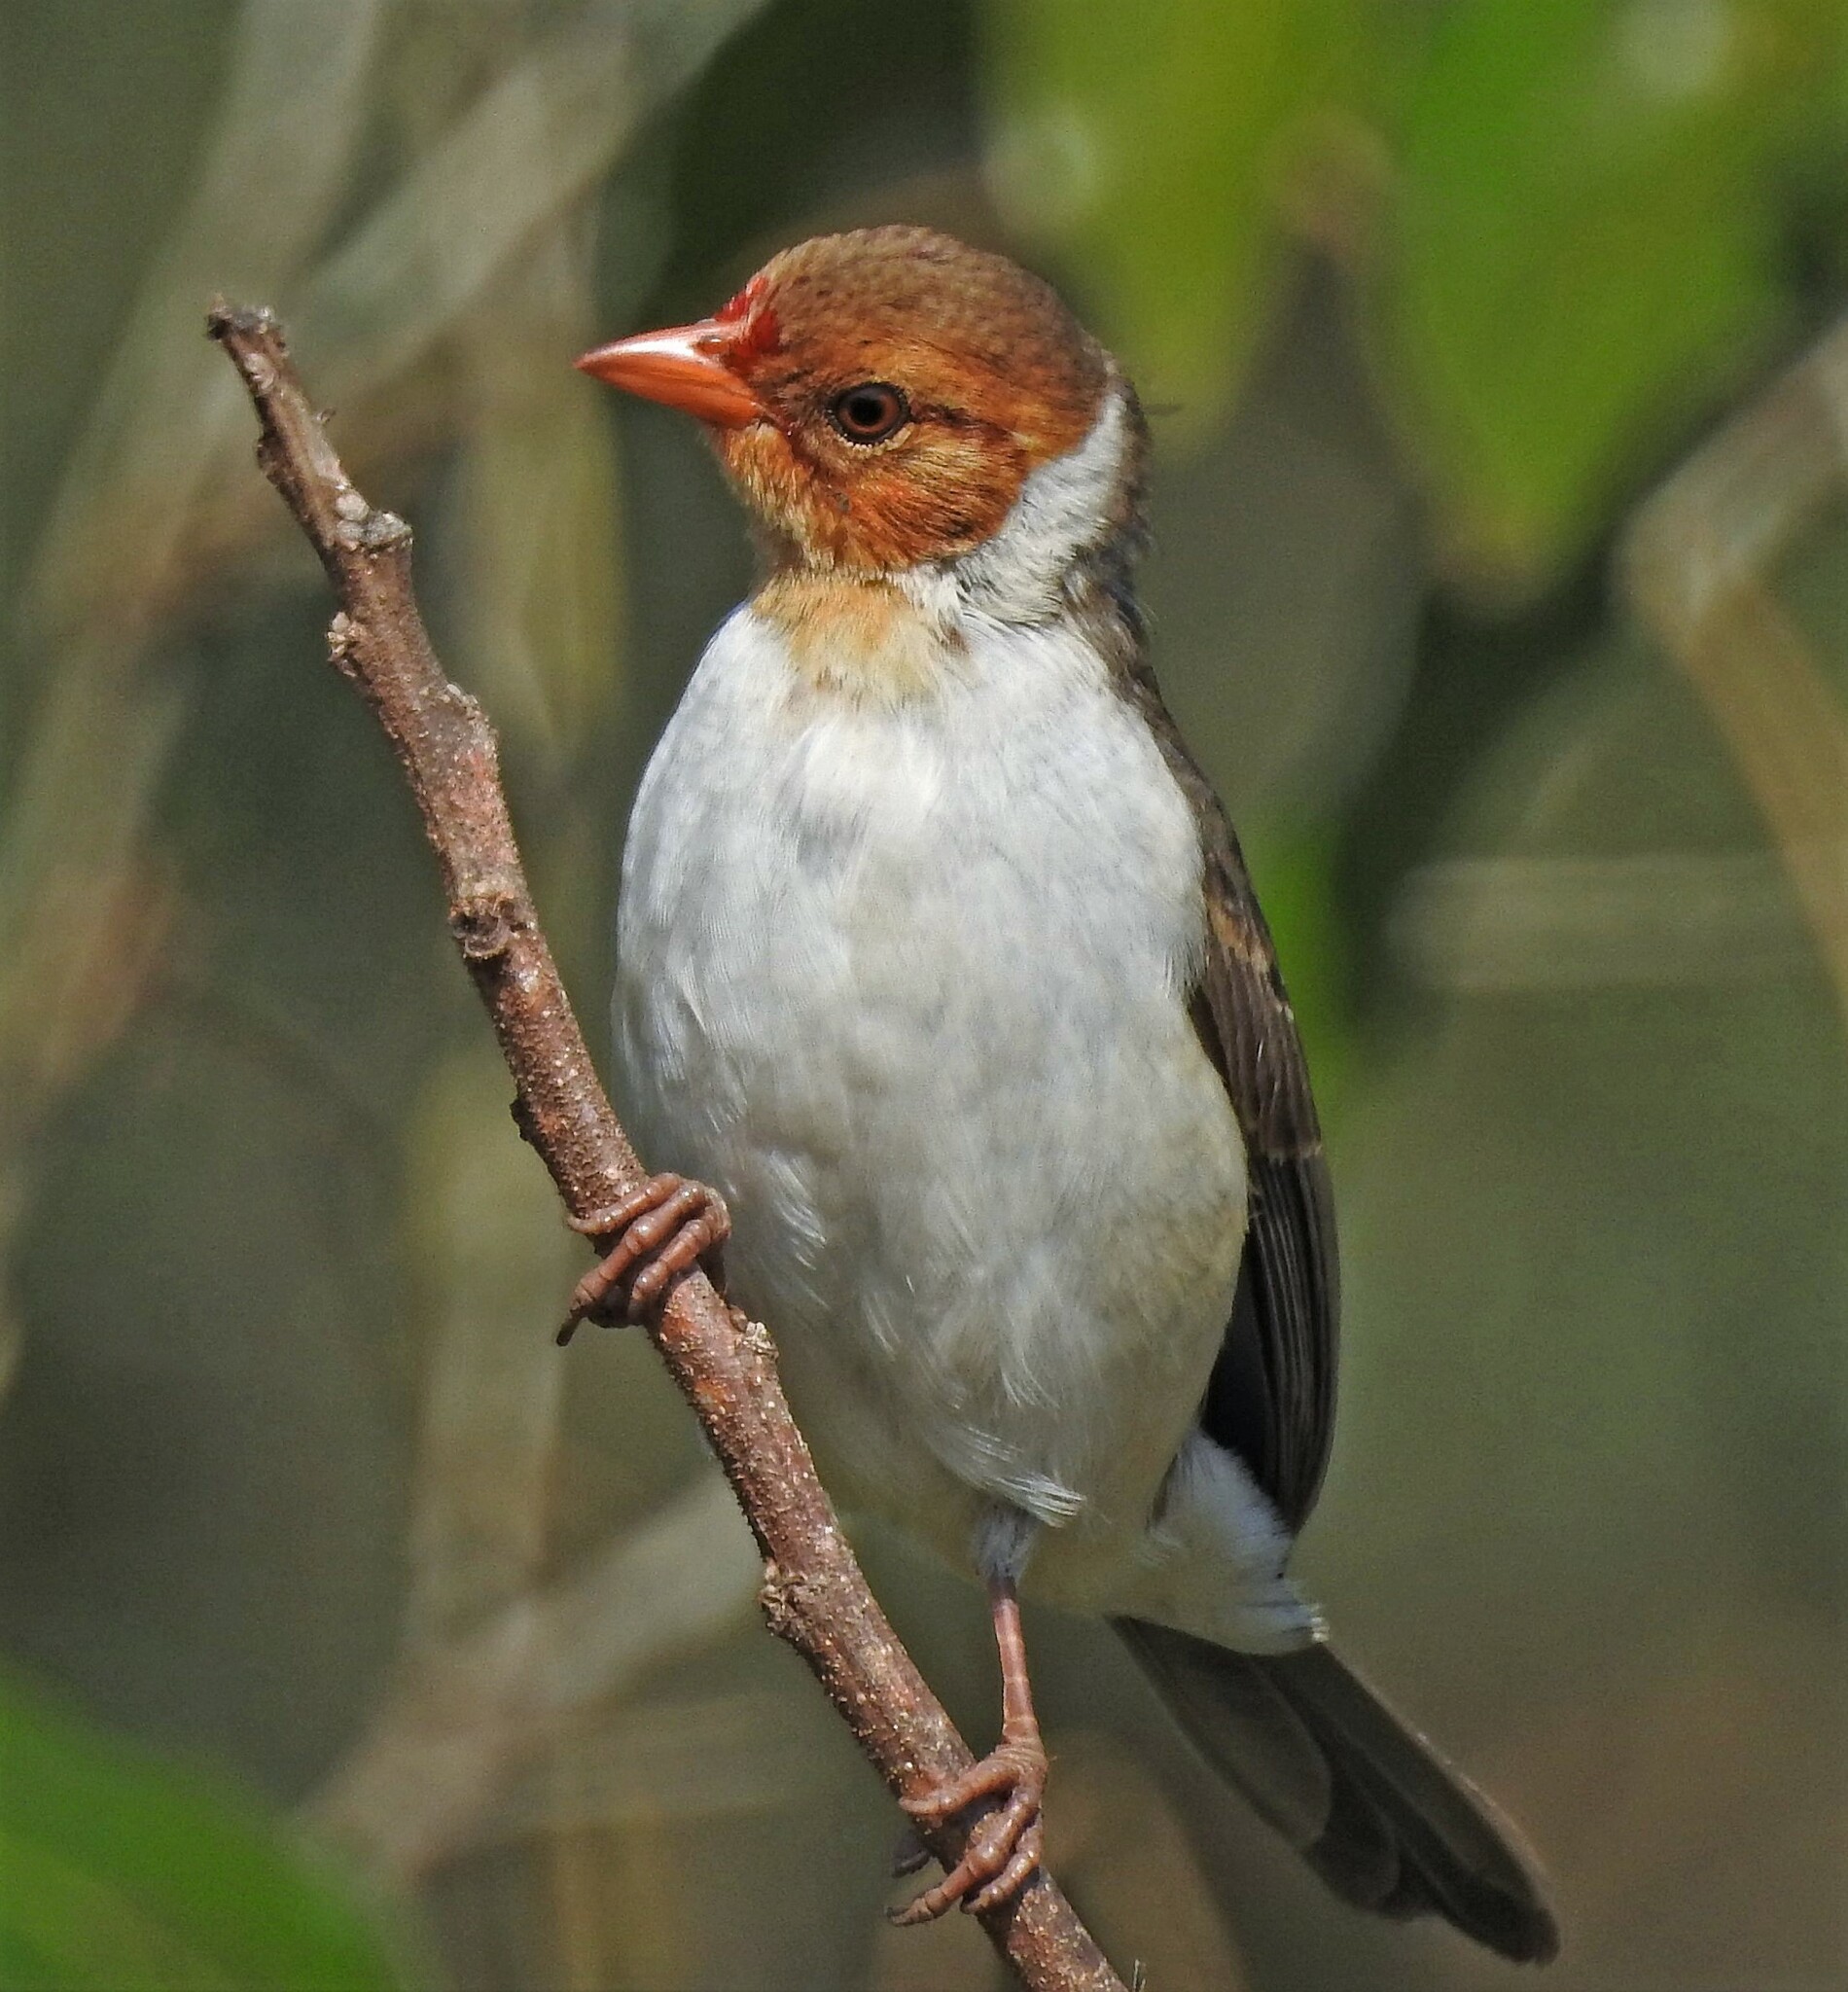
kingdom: Animalia
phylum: Chordata
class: Aves
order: Passeriformes
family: Thraupidae
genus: Paroaria
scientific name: Paroaria capitata
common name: Yellow-billed cardinal
